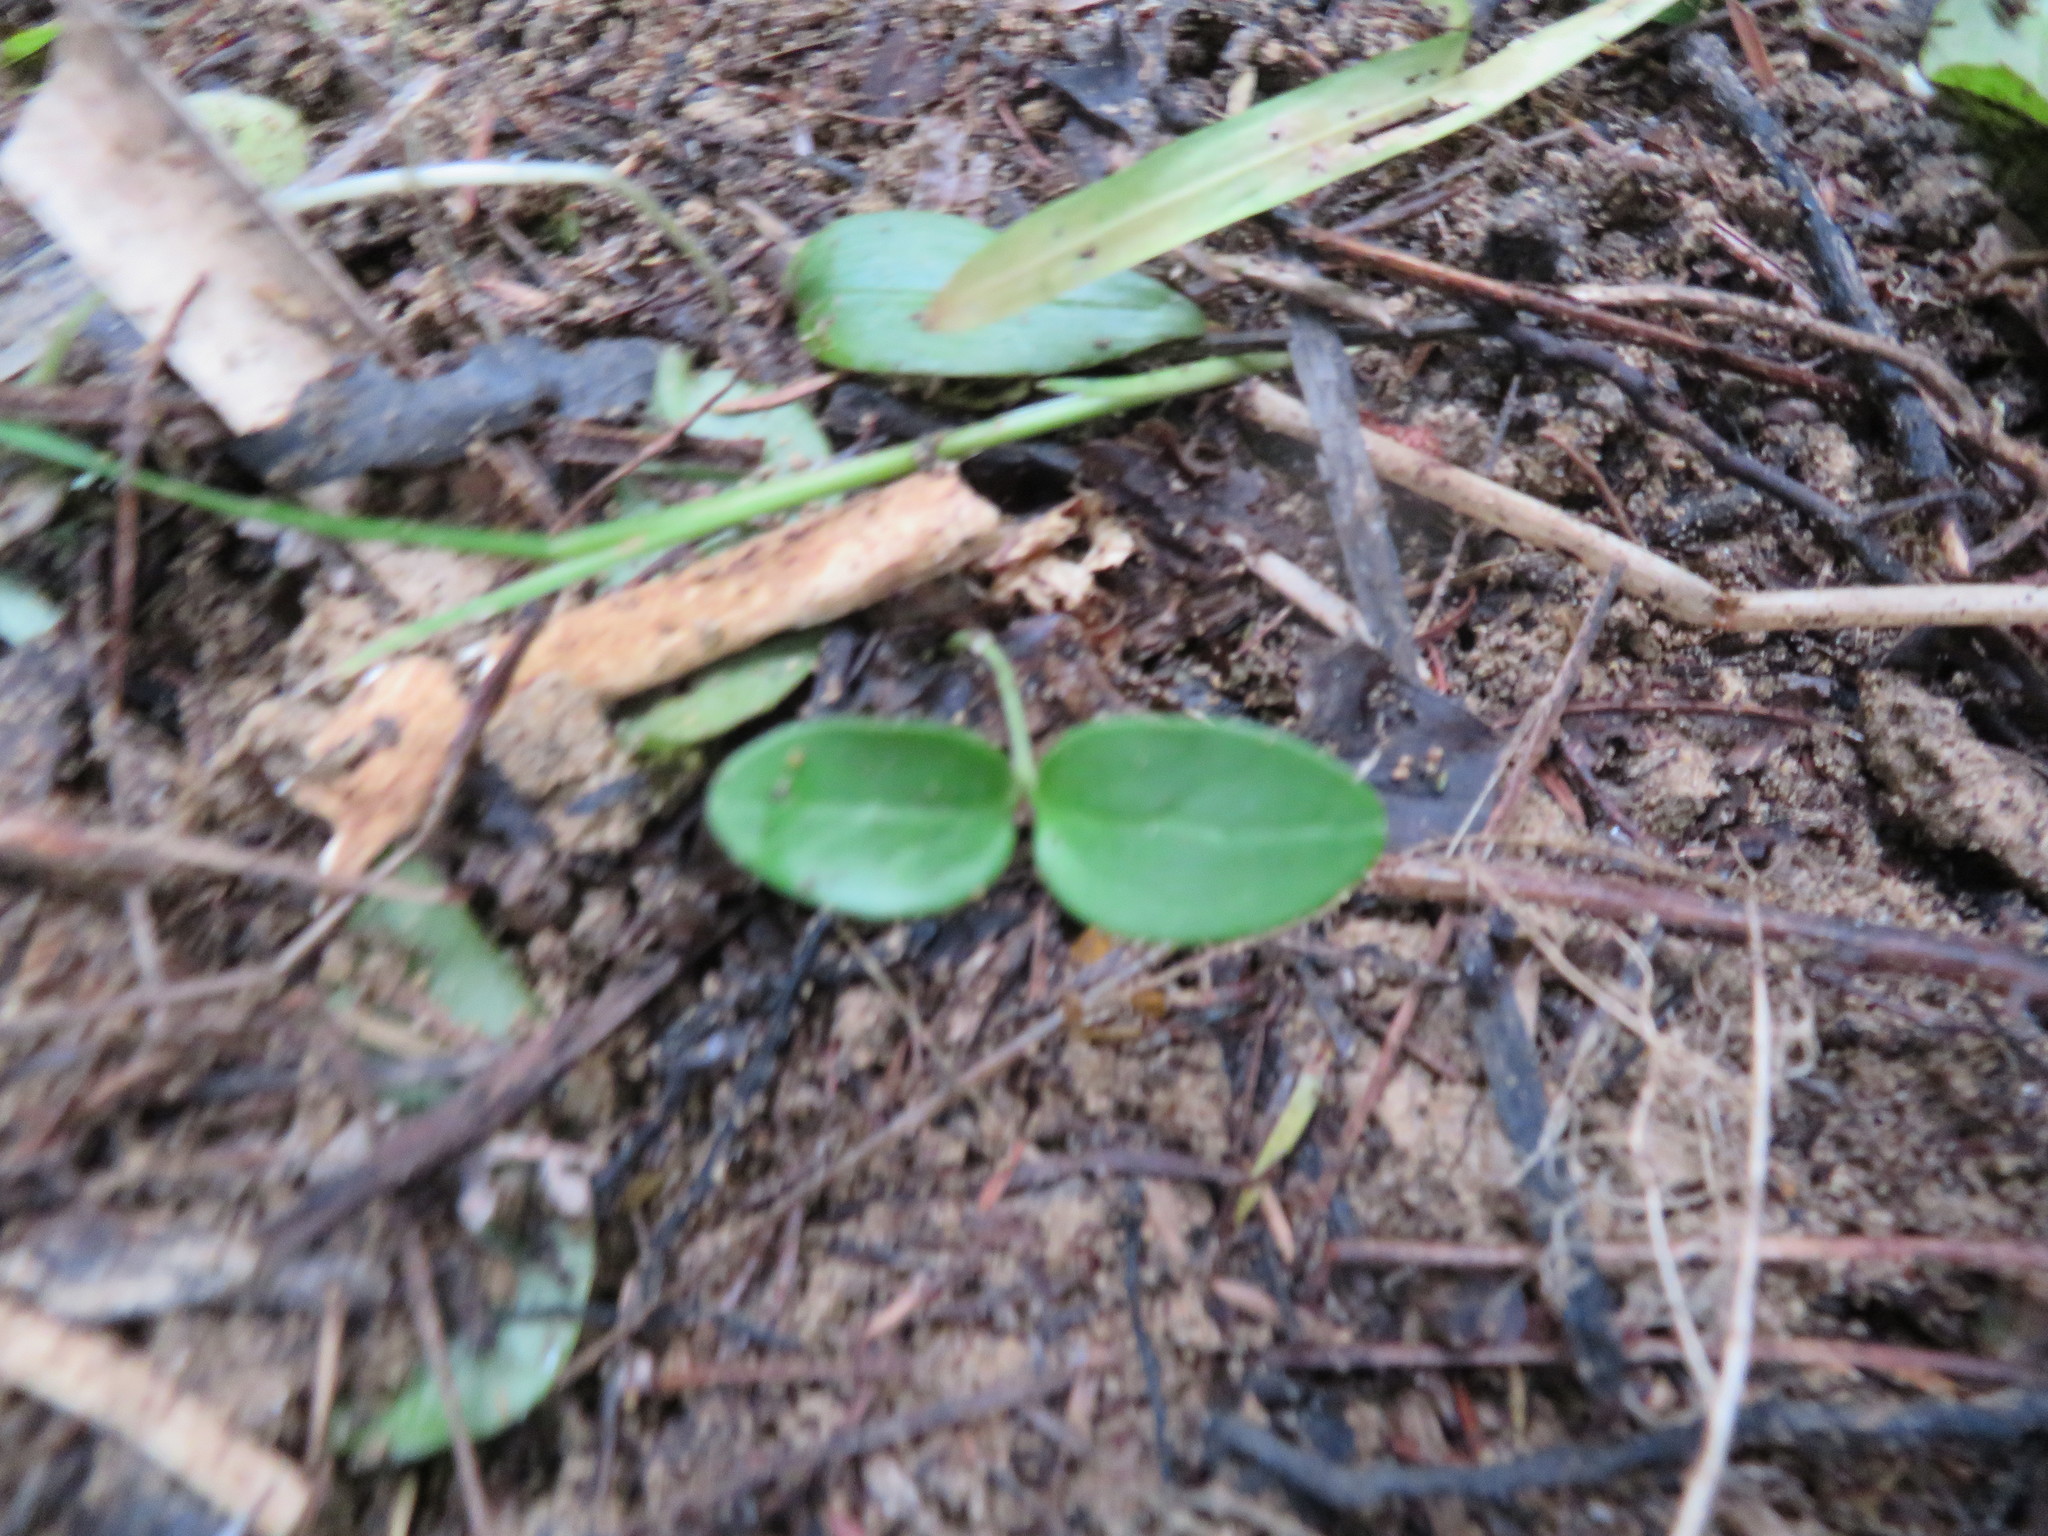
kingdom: Plantae
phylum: Tracheophyta
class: Magnoliopsida
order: Lamiales
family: Oleaceae
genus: Ligustrum
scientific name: Ligustrum lucidum
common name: Glossy privet
